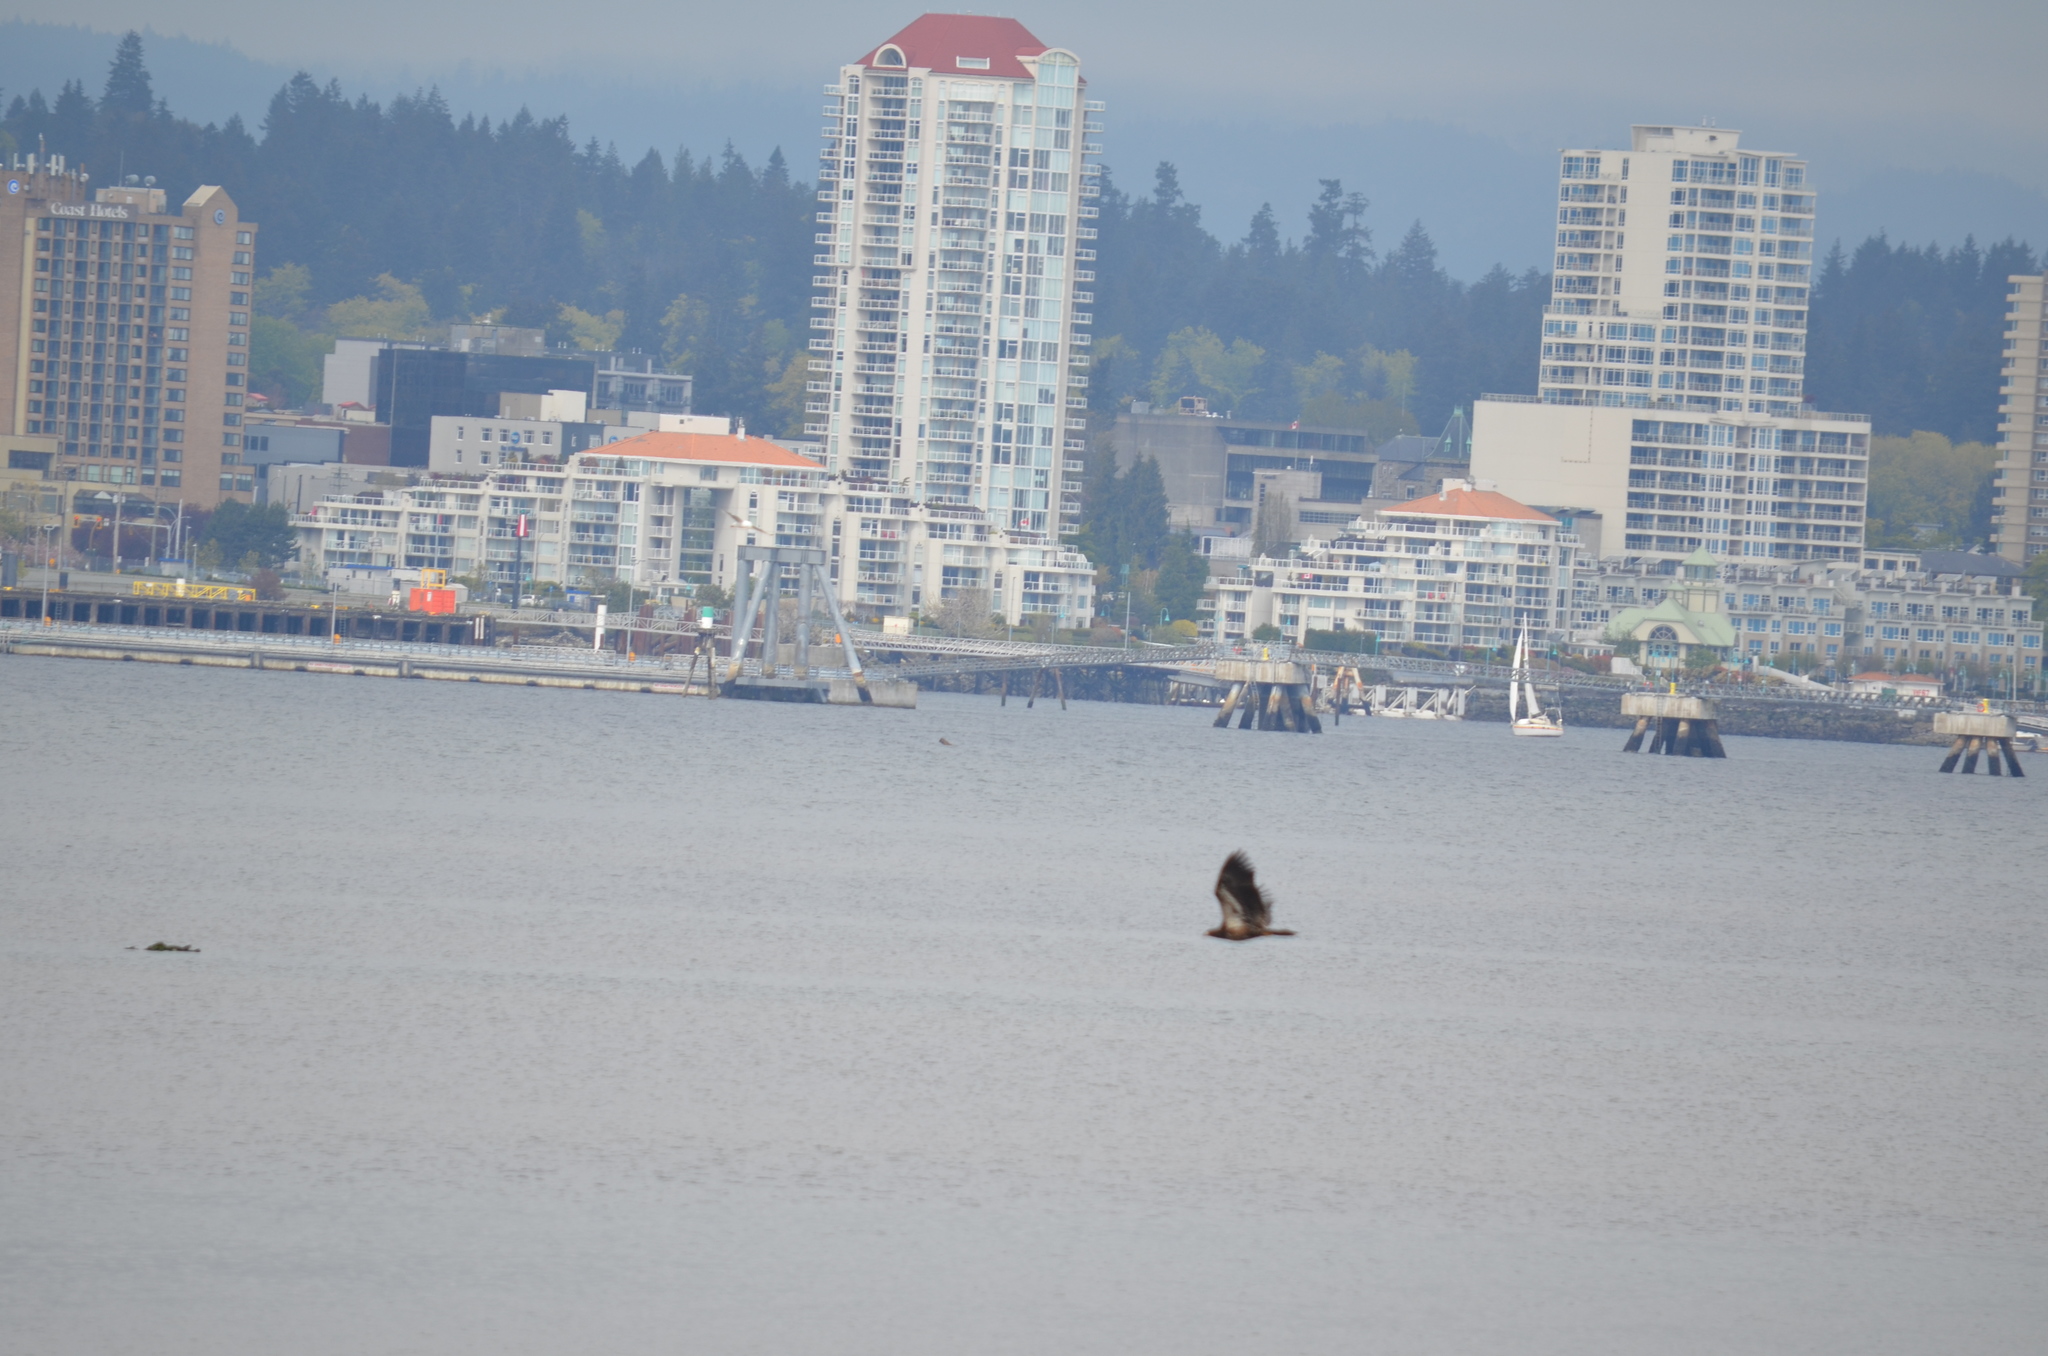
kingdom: Animalia
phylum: Chordata
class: Aves
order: Accipitriformes
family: Accipitridae
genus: Haliaeetus
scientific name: Haliaeetus leucocephalus
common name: Bald eagle
